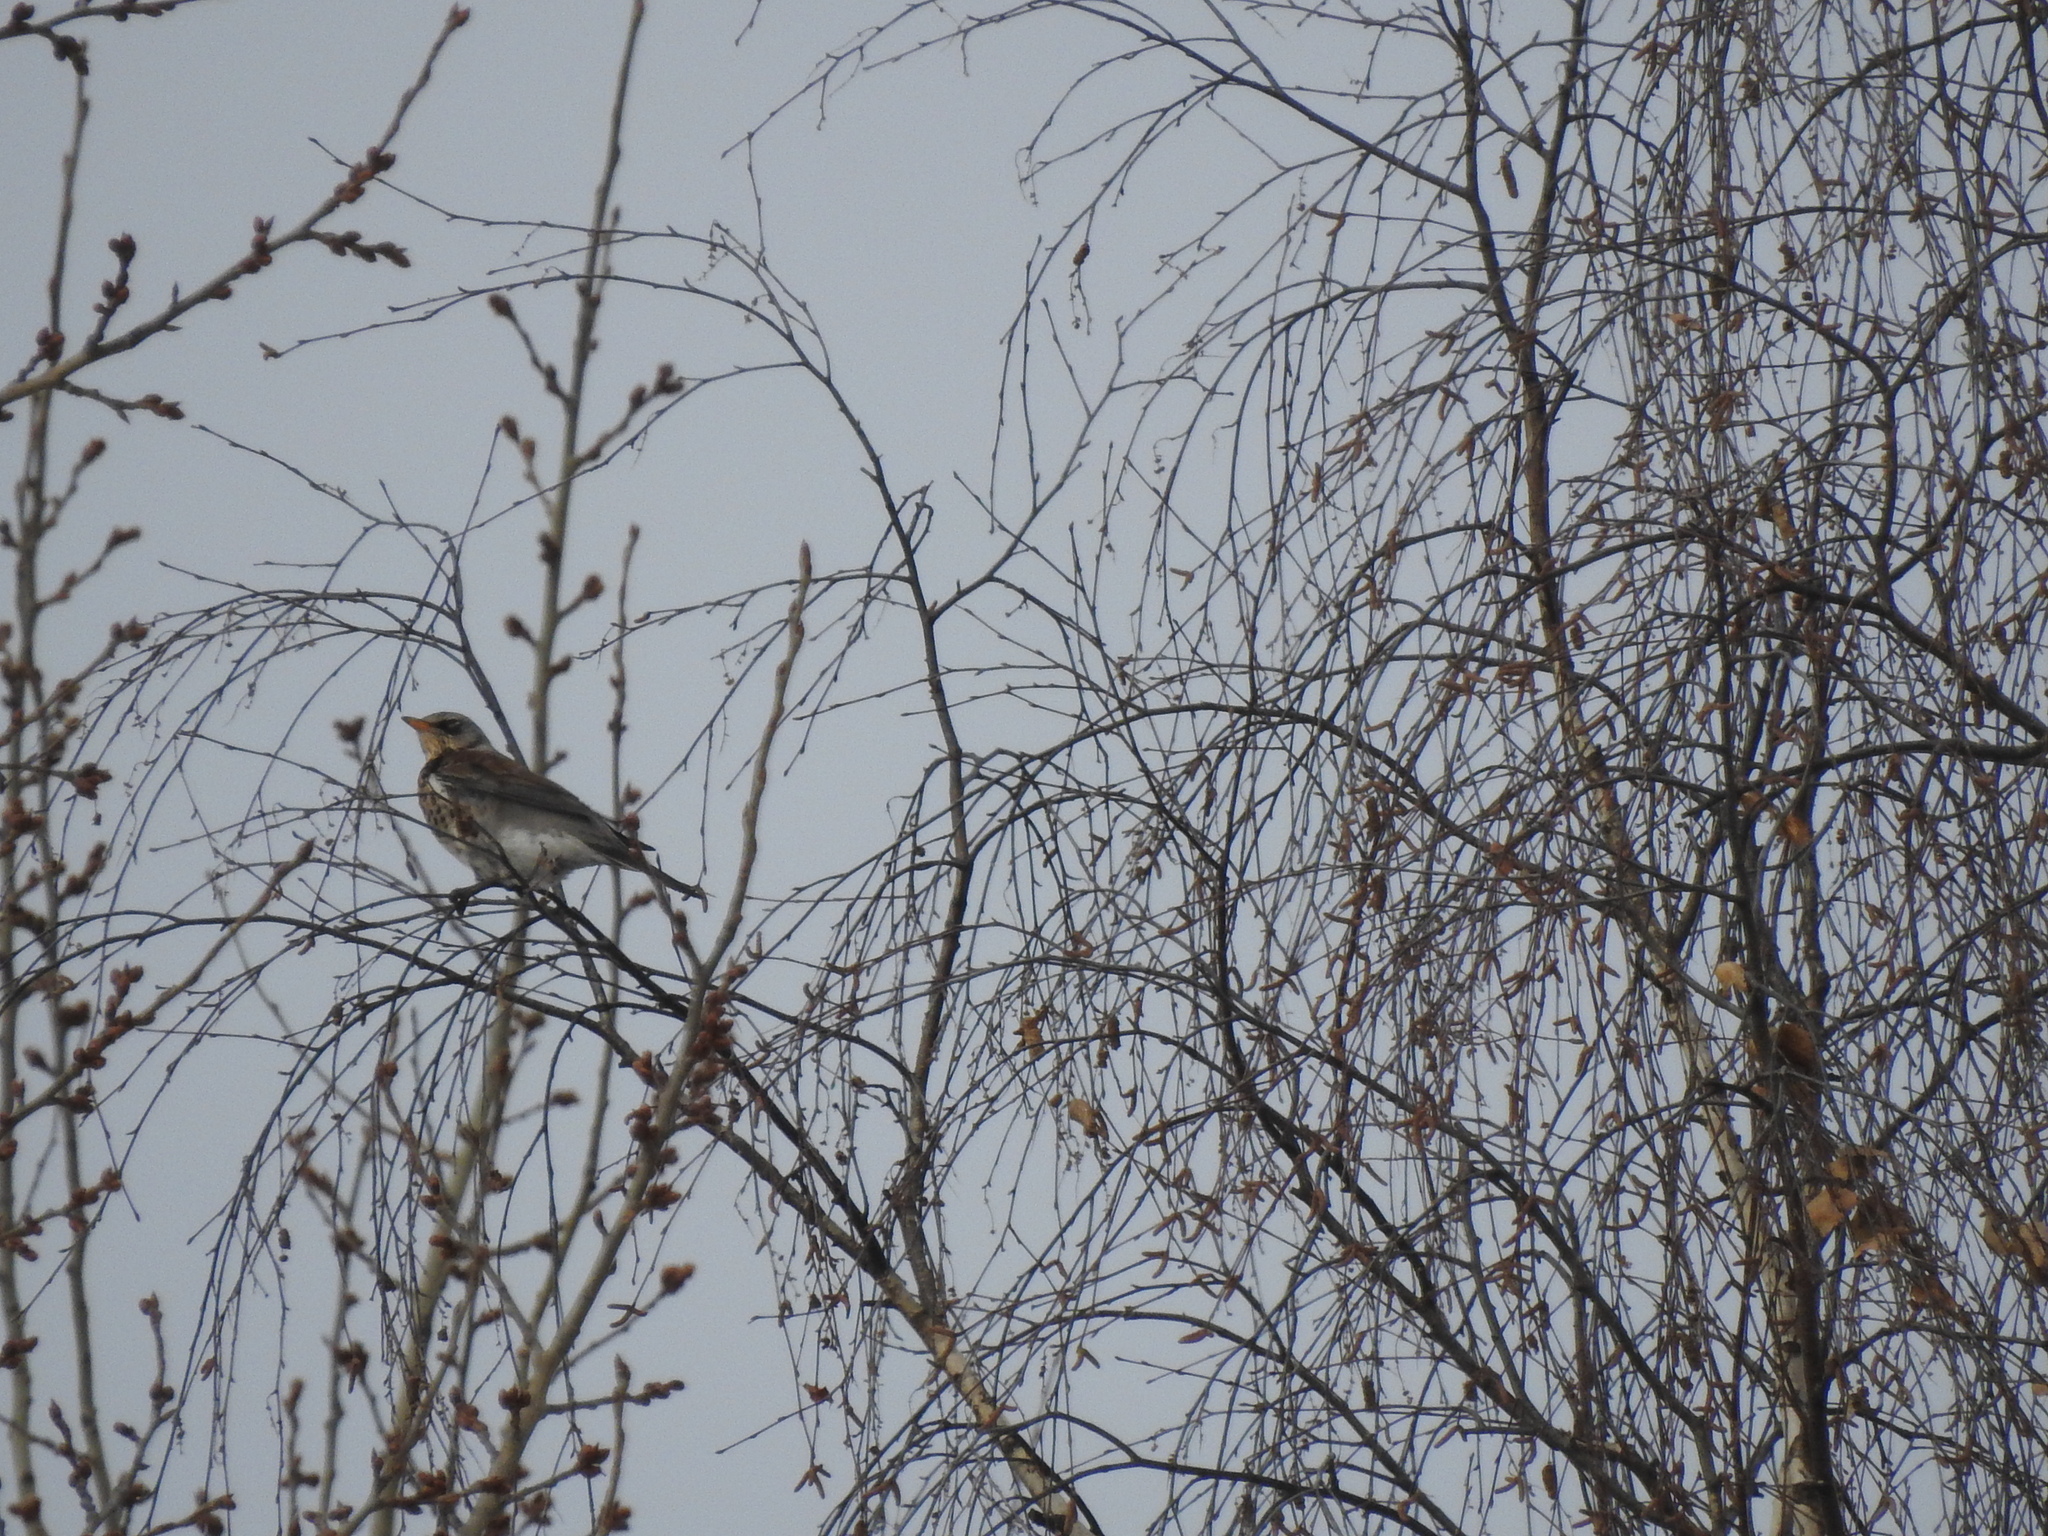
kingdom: Animalia
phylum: Chordata
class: Aves
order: Passeriformes
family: Turdidae
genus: Turdus
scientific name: Turdus pilaris
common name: Fieldfare
